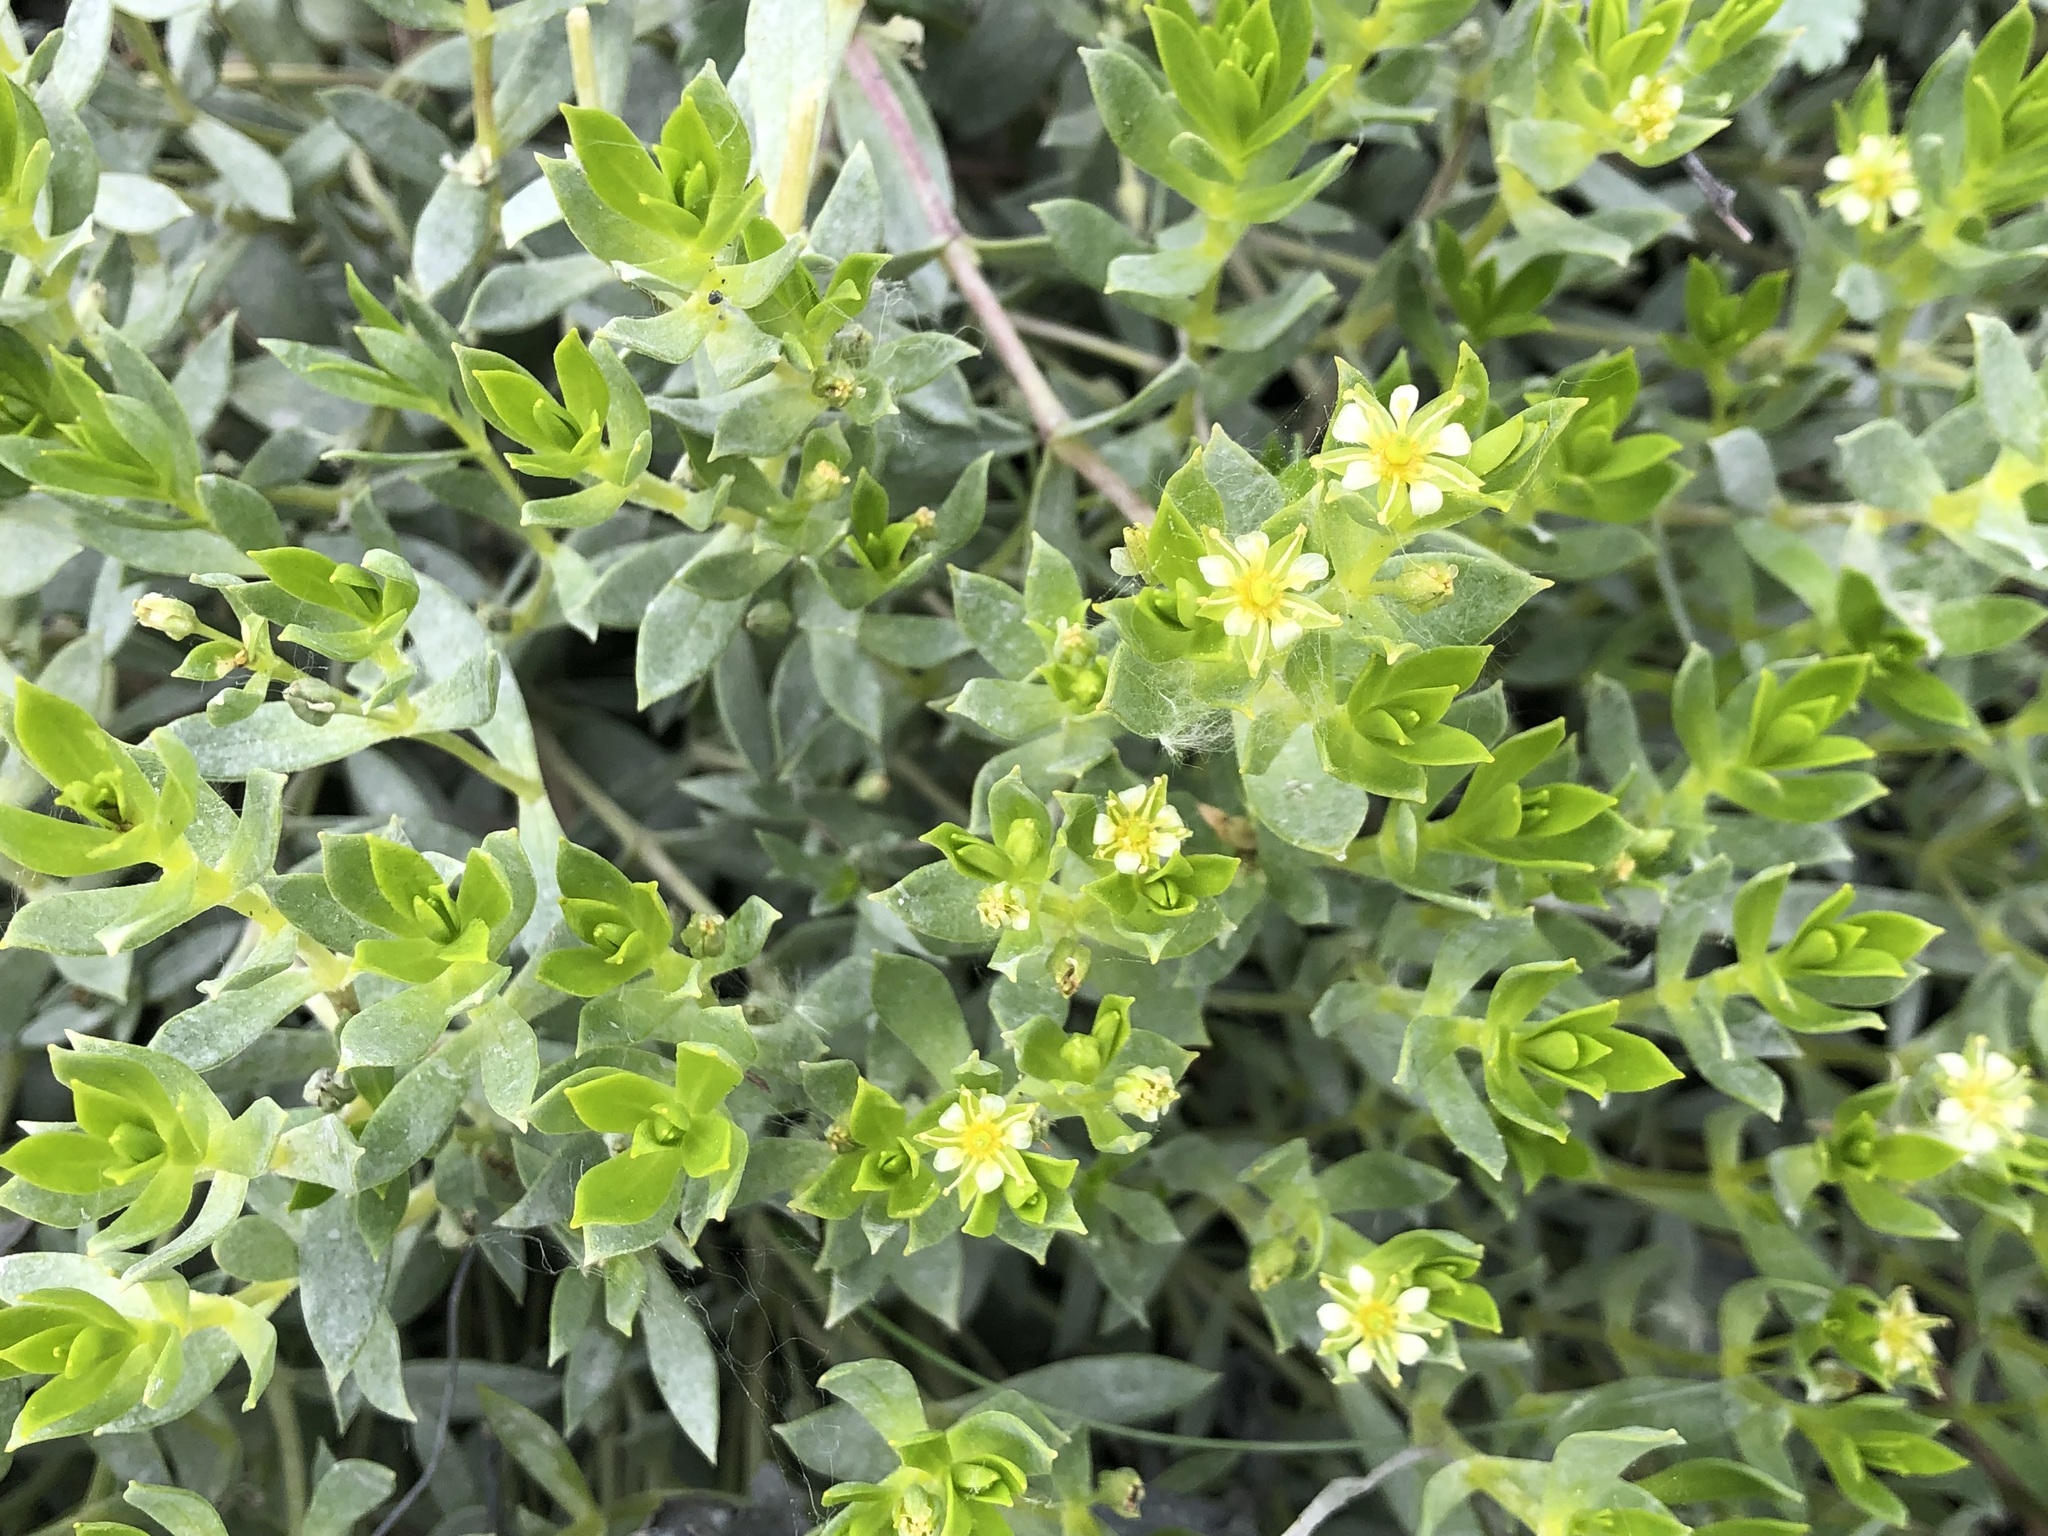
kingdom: Plantae
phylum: Tracheophyta
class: Magnoliopsida
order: Caryophyllales
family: Caryophyllaceae
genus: Honckenya
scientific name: Honckenya peploides
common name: Sea sandwort
